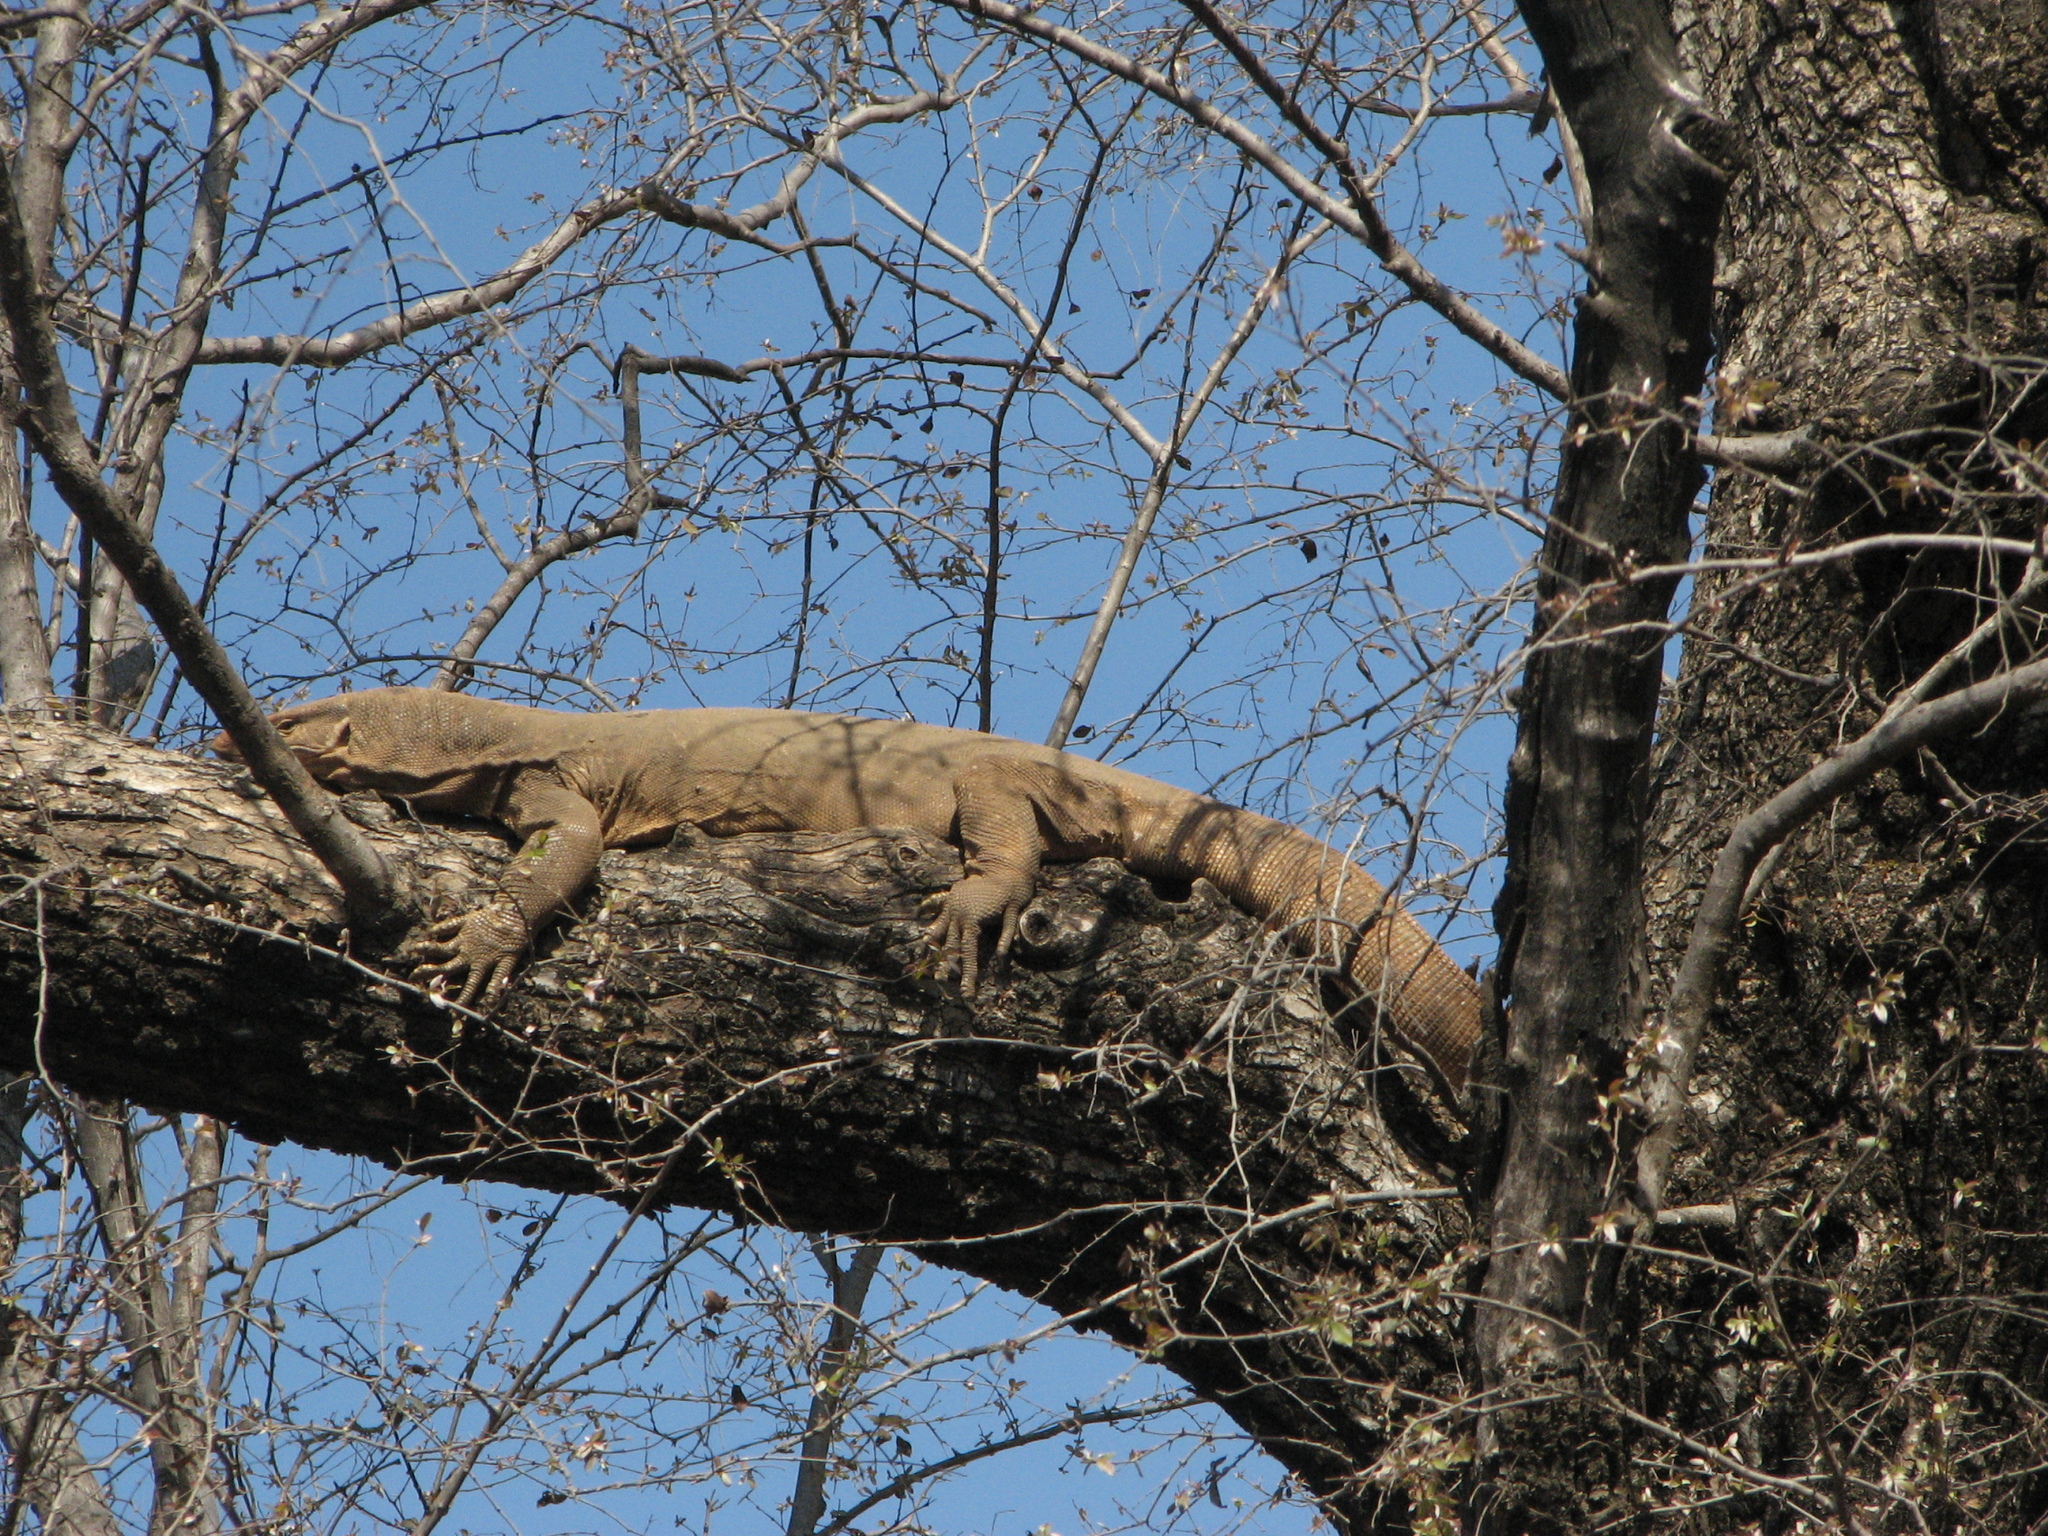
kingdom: Animalia
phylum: Chordata
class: Squamata
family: Varanidae
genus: Varanus
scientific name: Varanus bengalensis
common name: Bengal monitor
